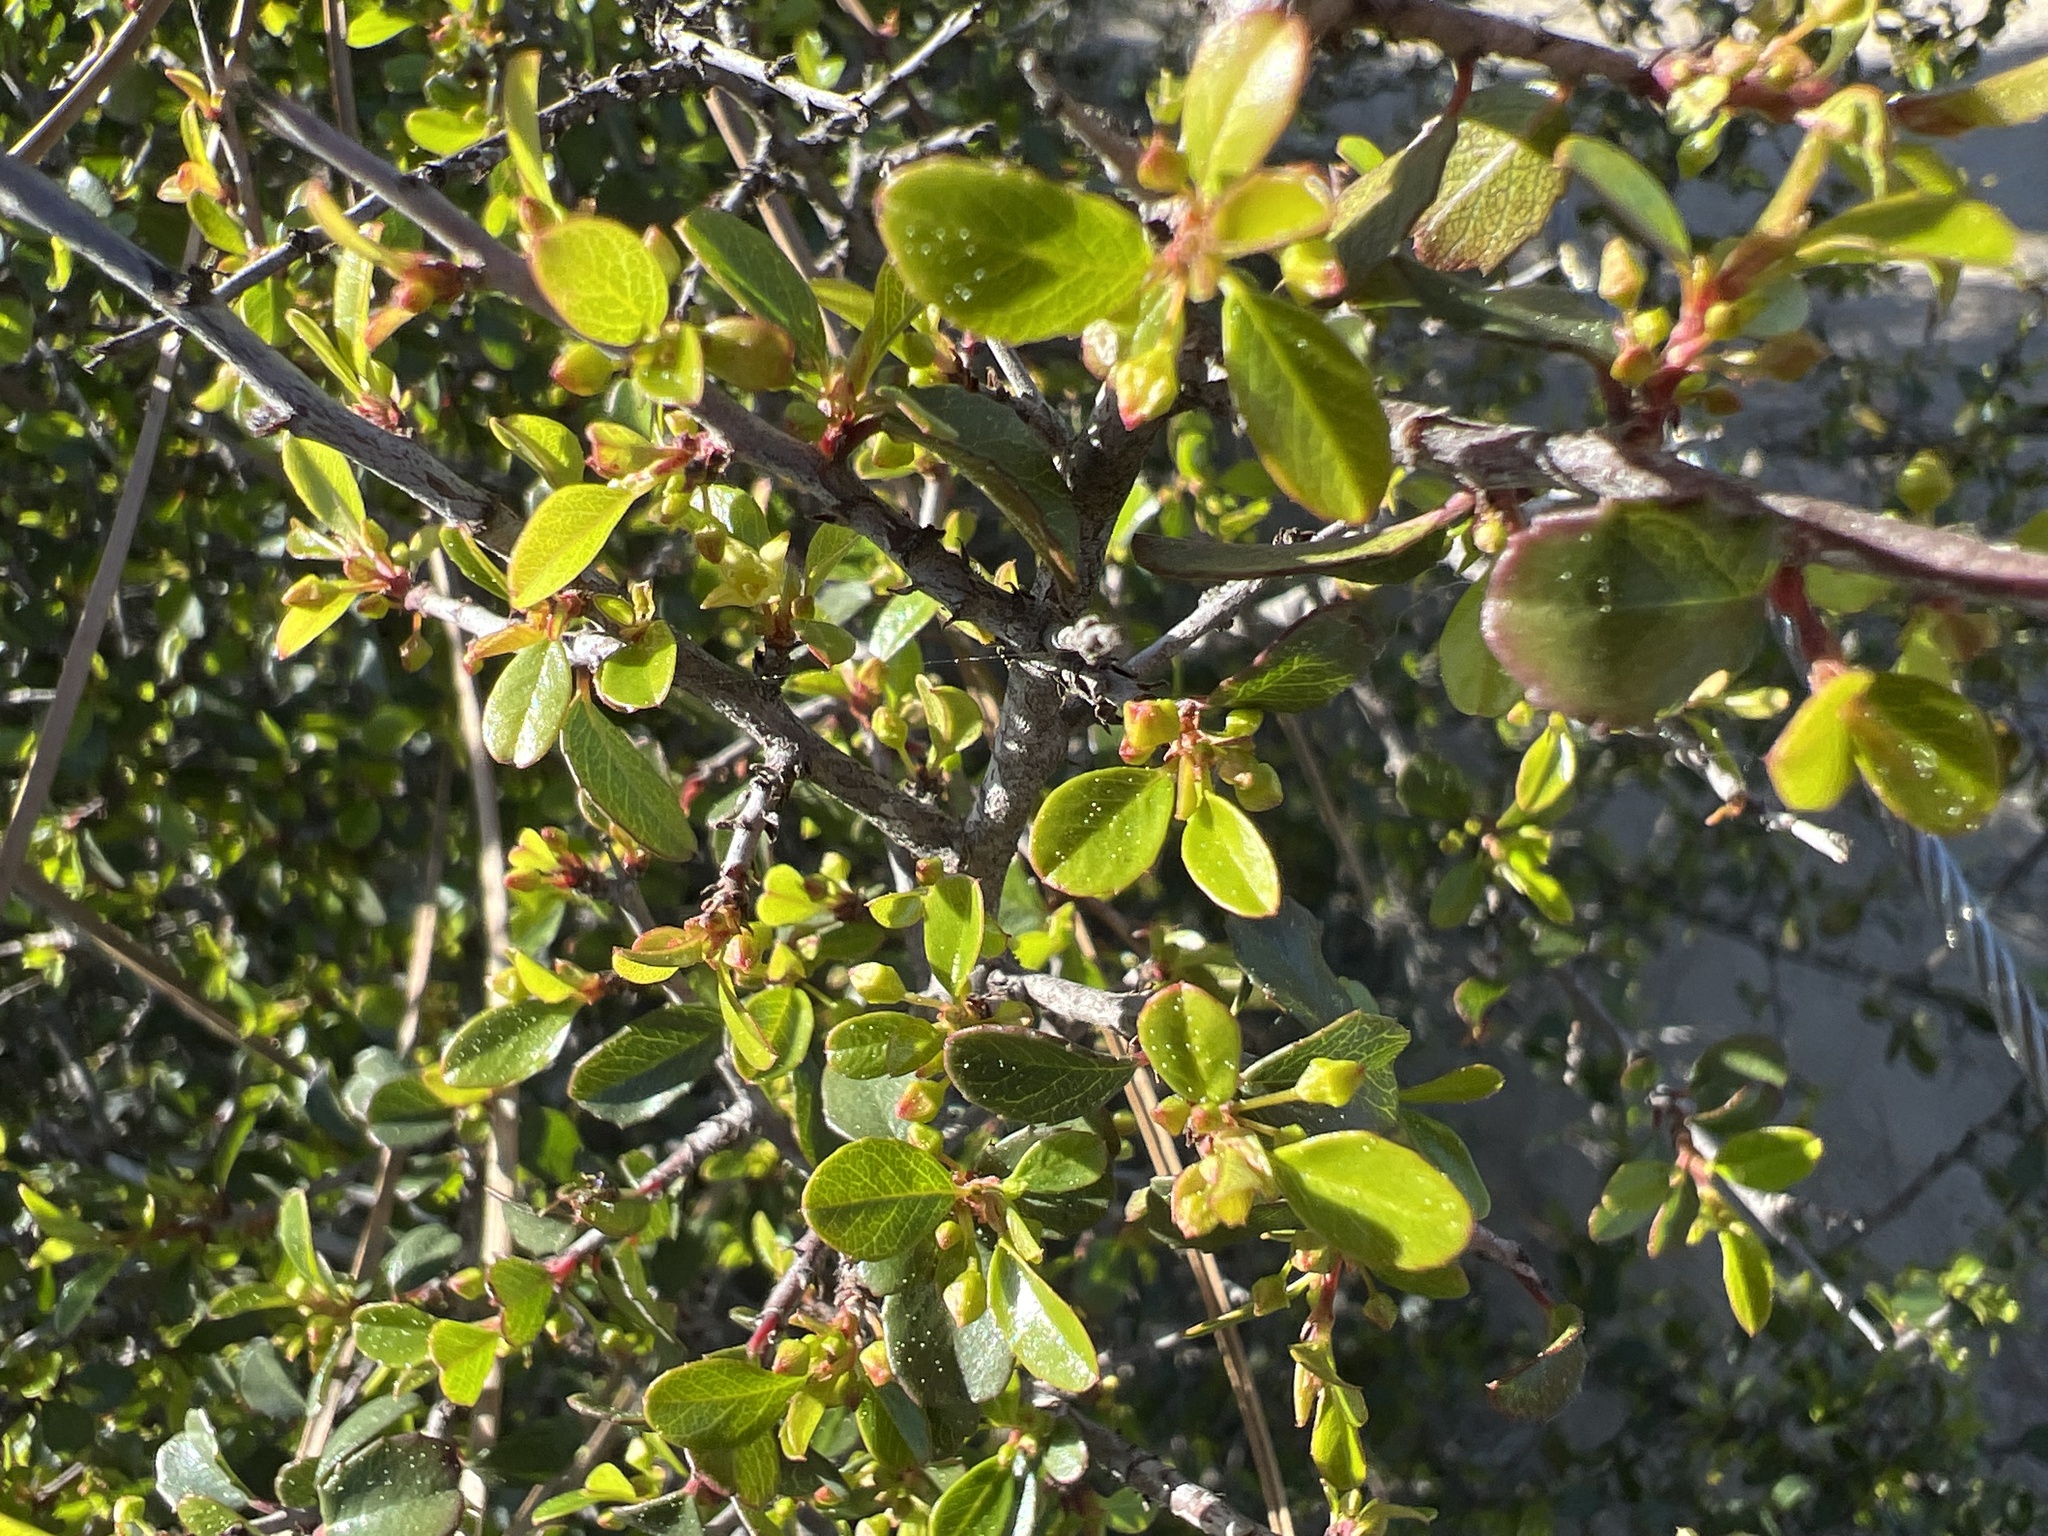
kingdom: Plantae
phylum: Tracheophyta
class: Magnoliopsida
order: Rosales
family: Rhamnaceae
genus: Endotropis
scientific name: Endotropis crocea
